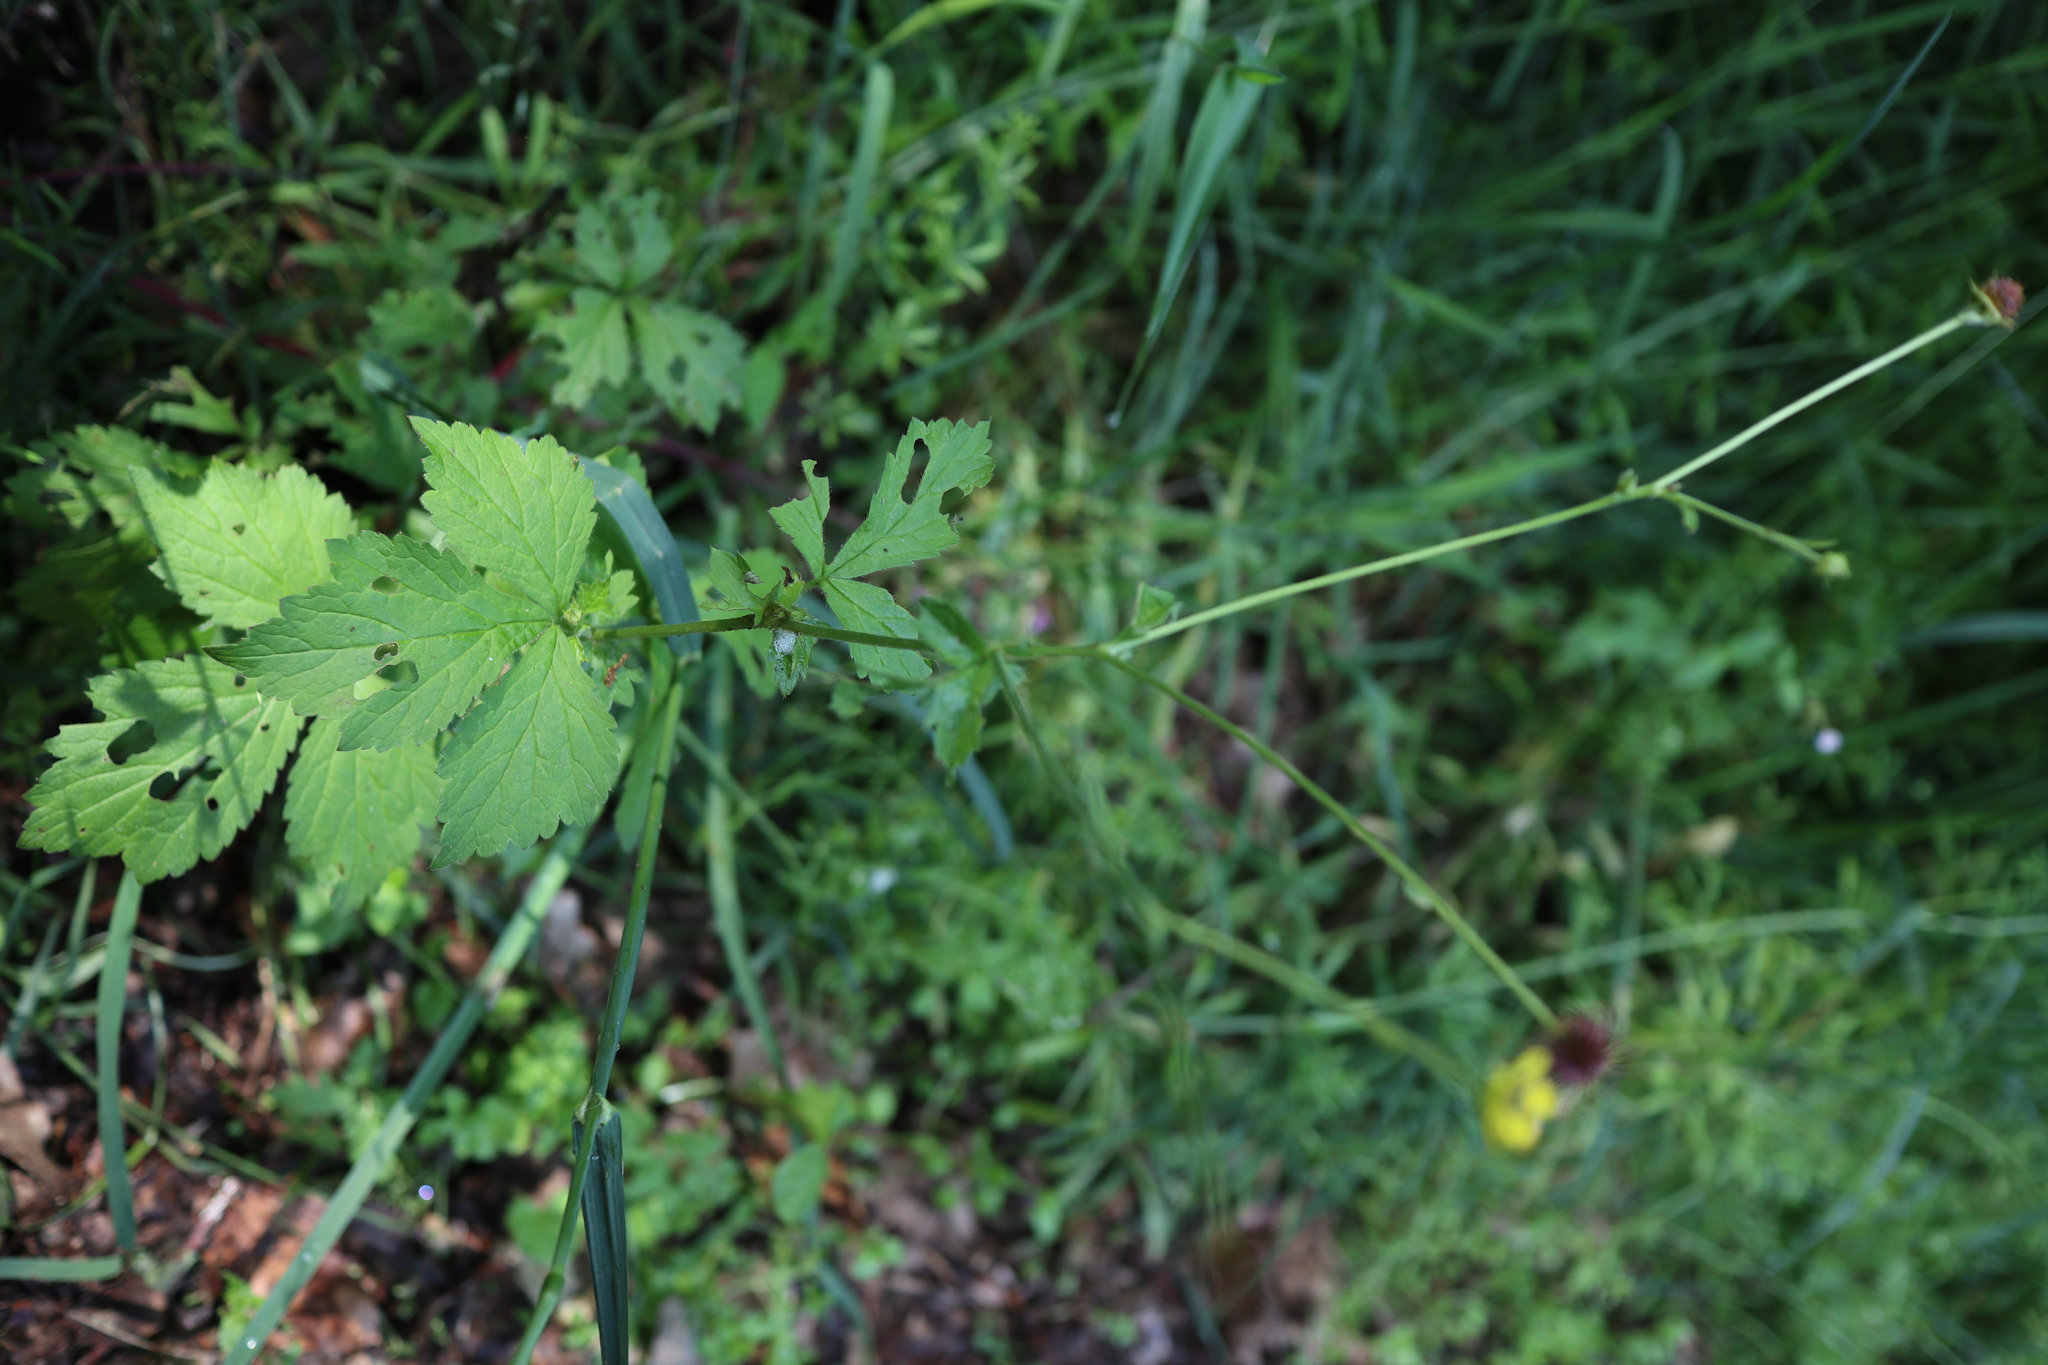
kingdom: Plantae
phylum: Tracheophyta
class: Magnoliopsida
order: Rosales
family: Rosaceae
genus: Geum
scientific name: Geum urbanum
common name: Wood avens
